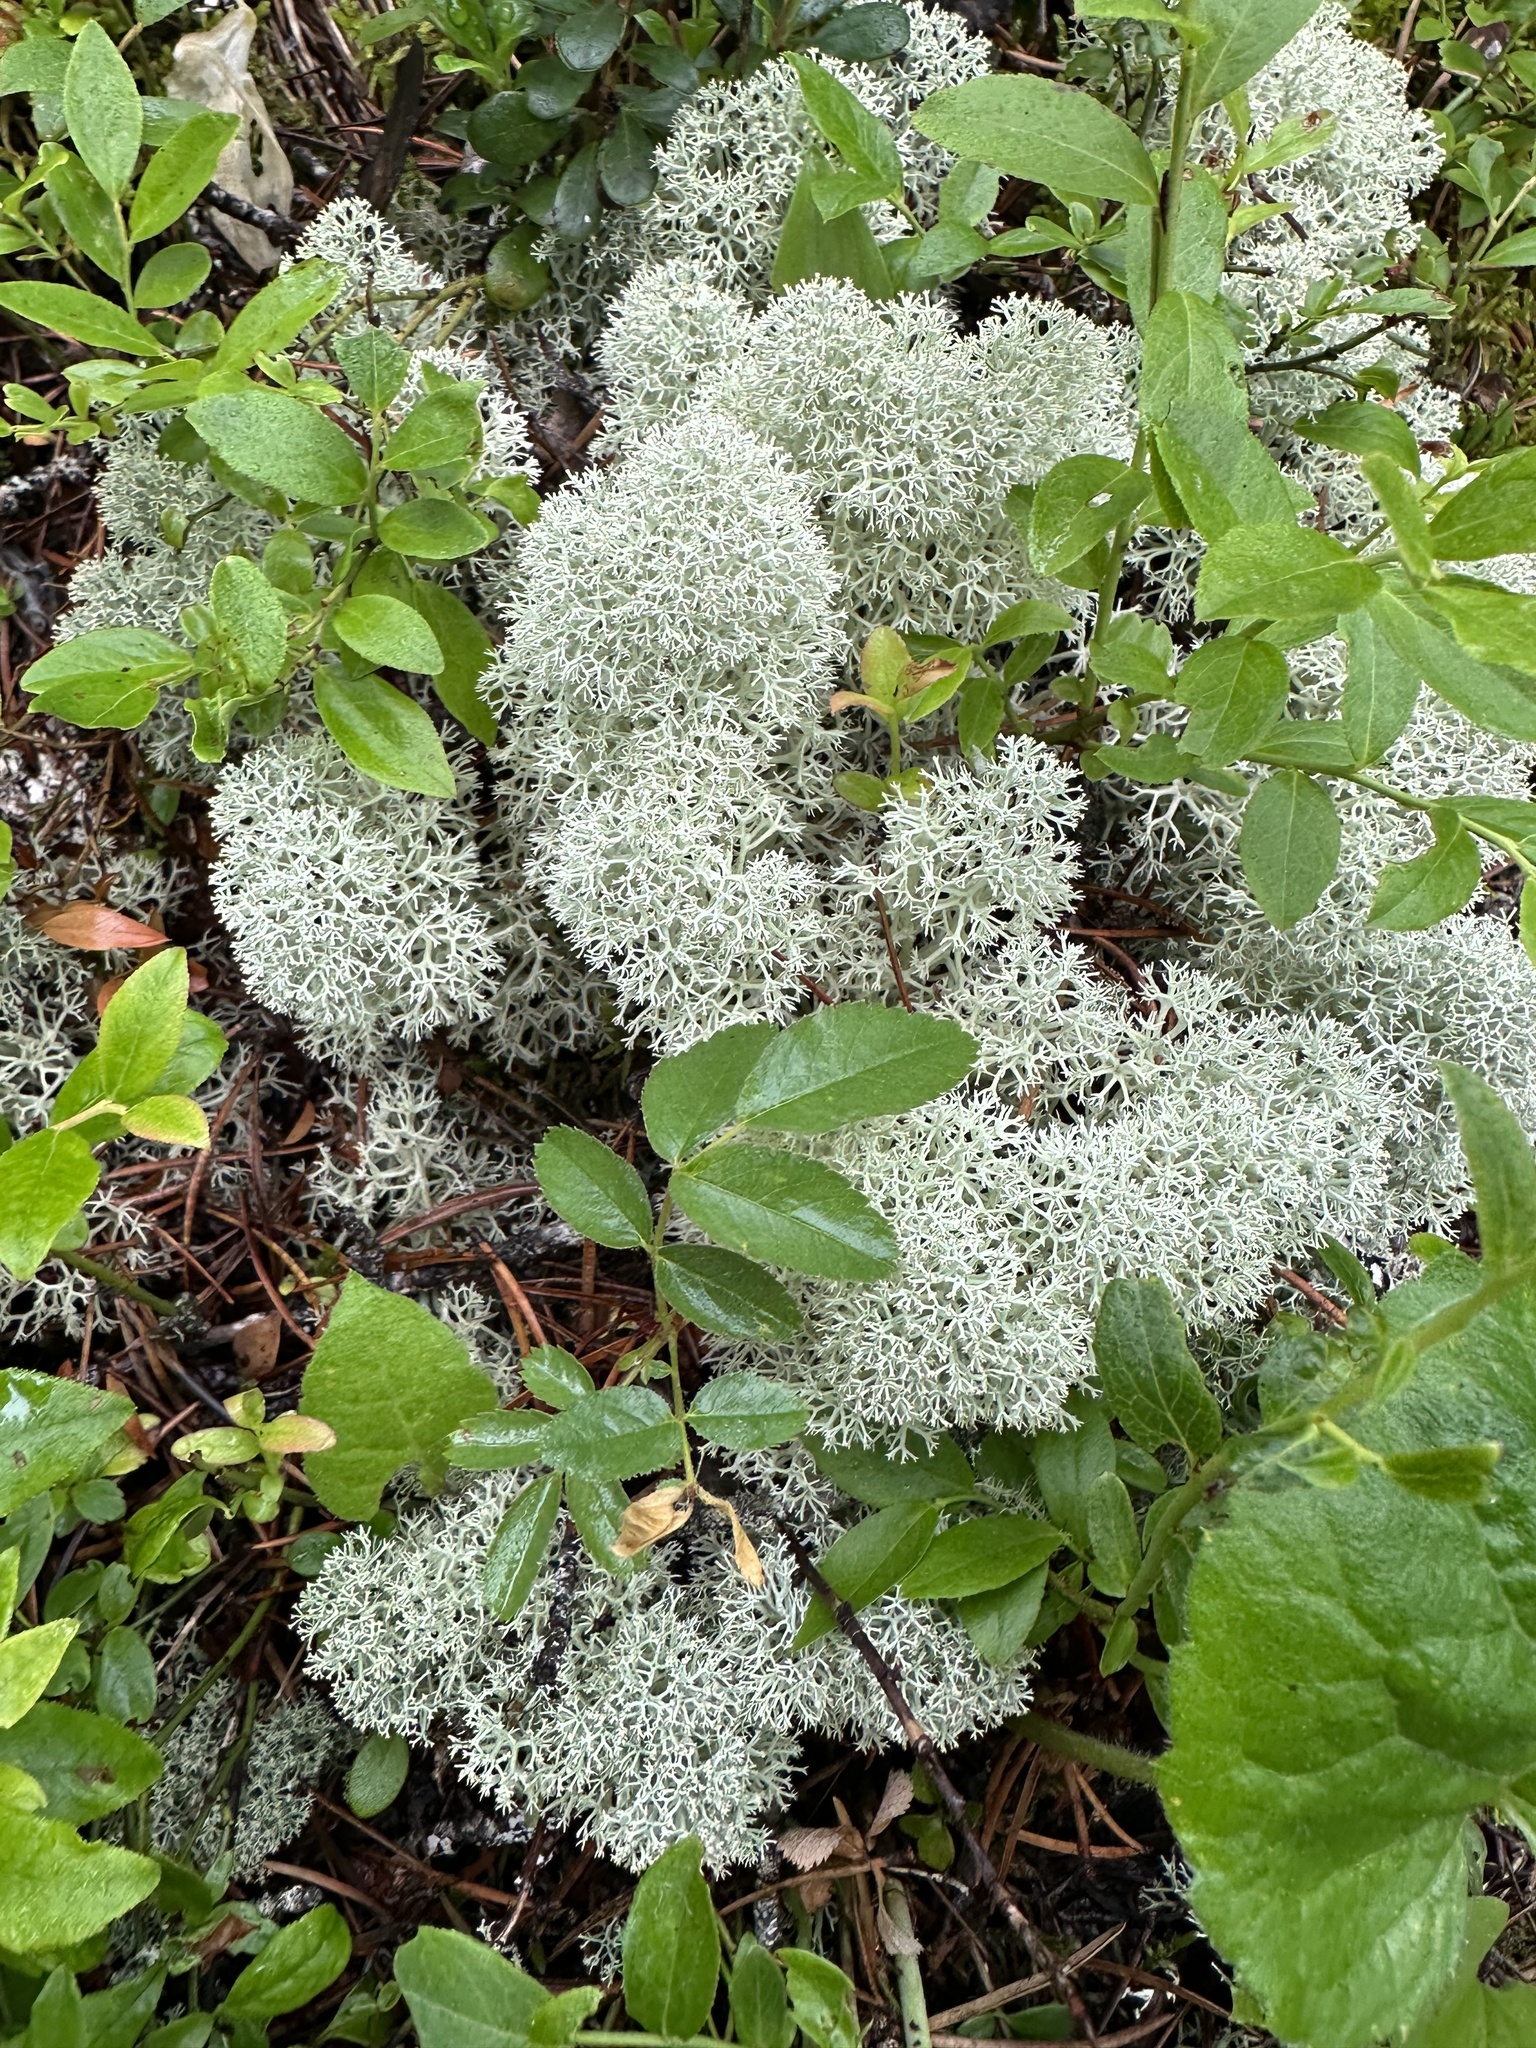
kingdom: Fungi
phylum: Ascomycota
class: Lecanoromycetes
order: Lecanorales
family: Cladoniaceae
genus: Cladonia
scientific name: Cladonia stellaris
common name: Star-tipped reindeer lichen
